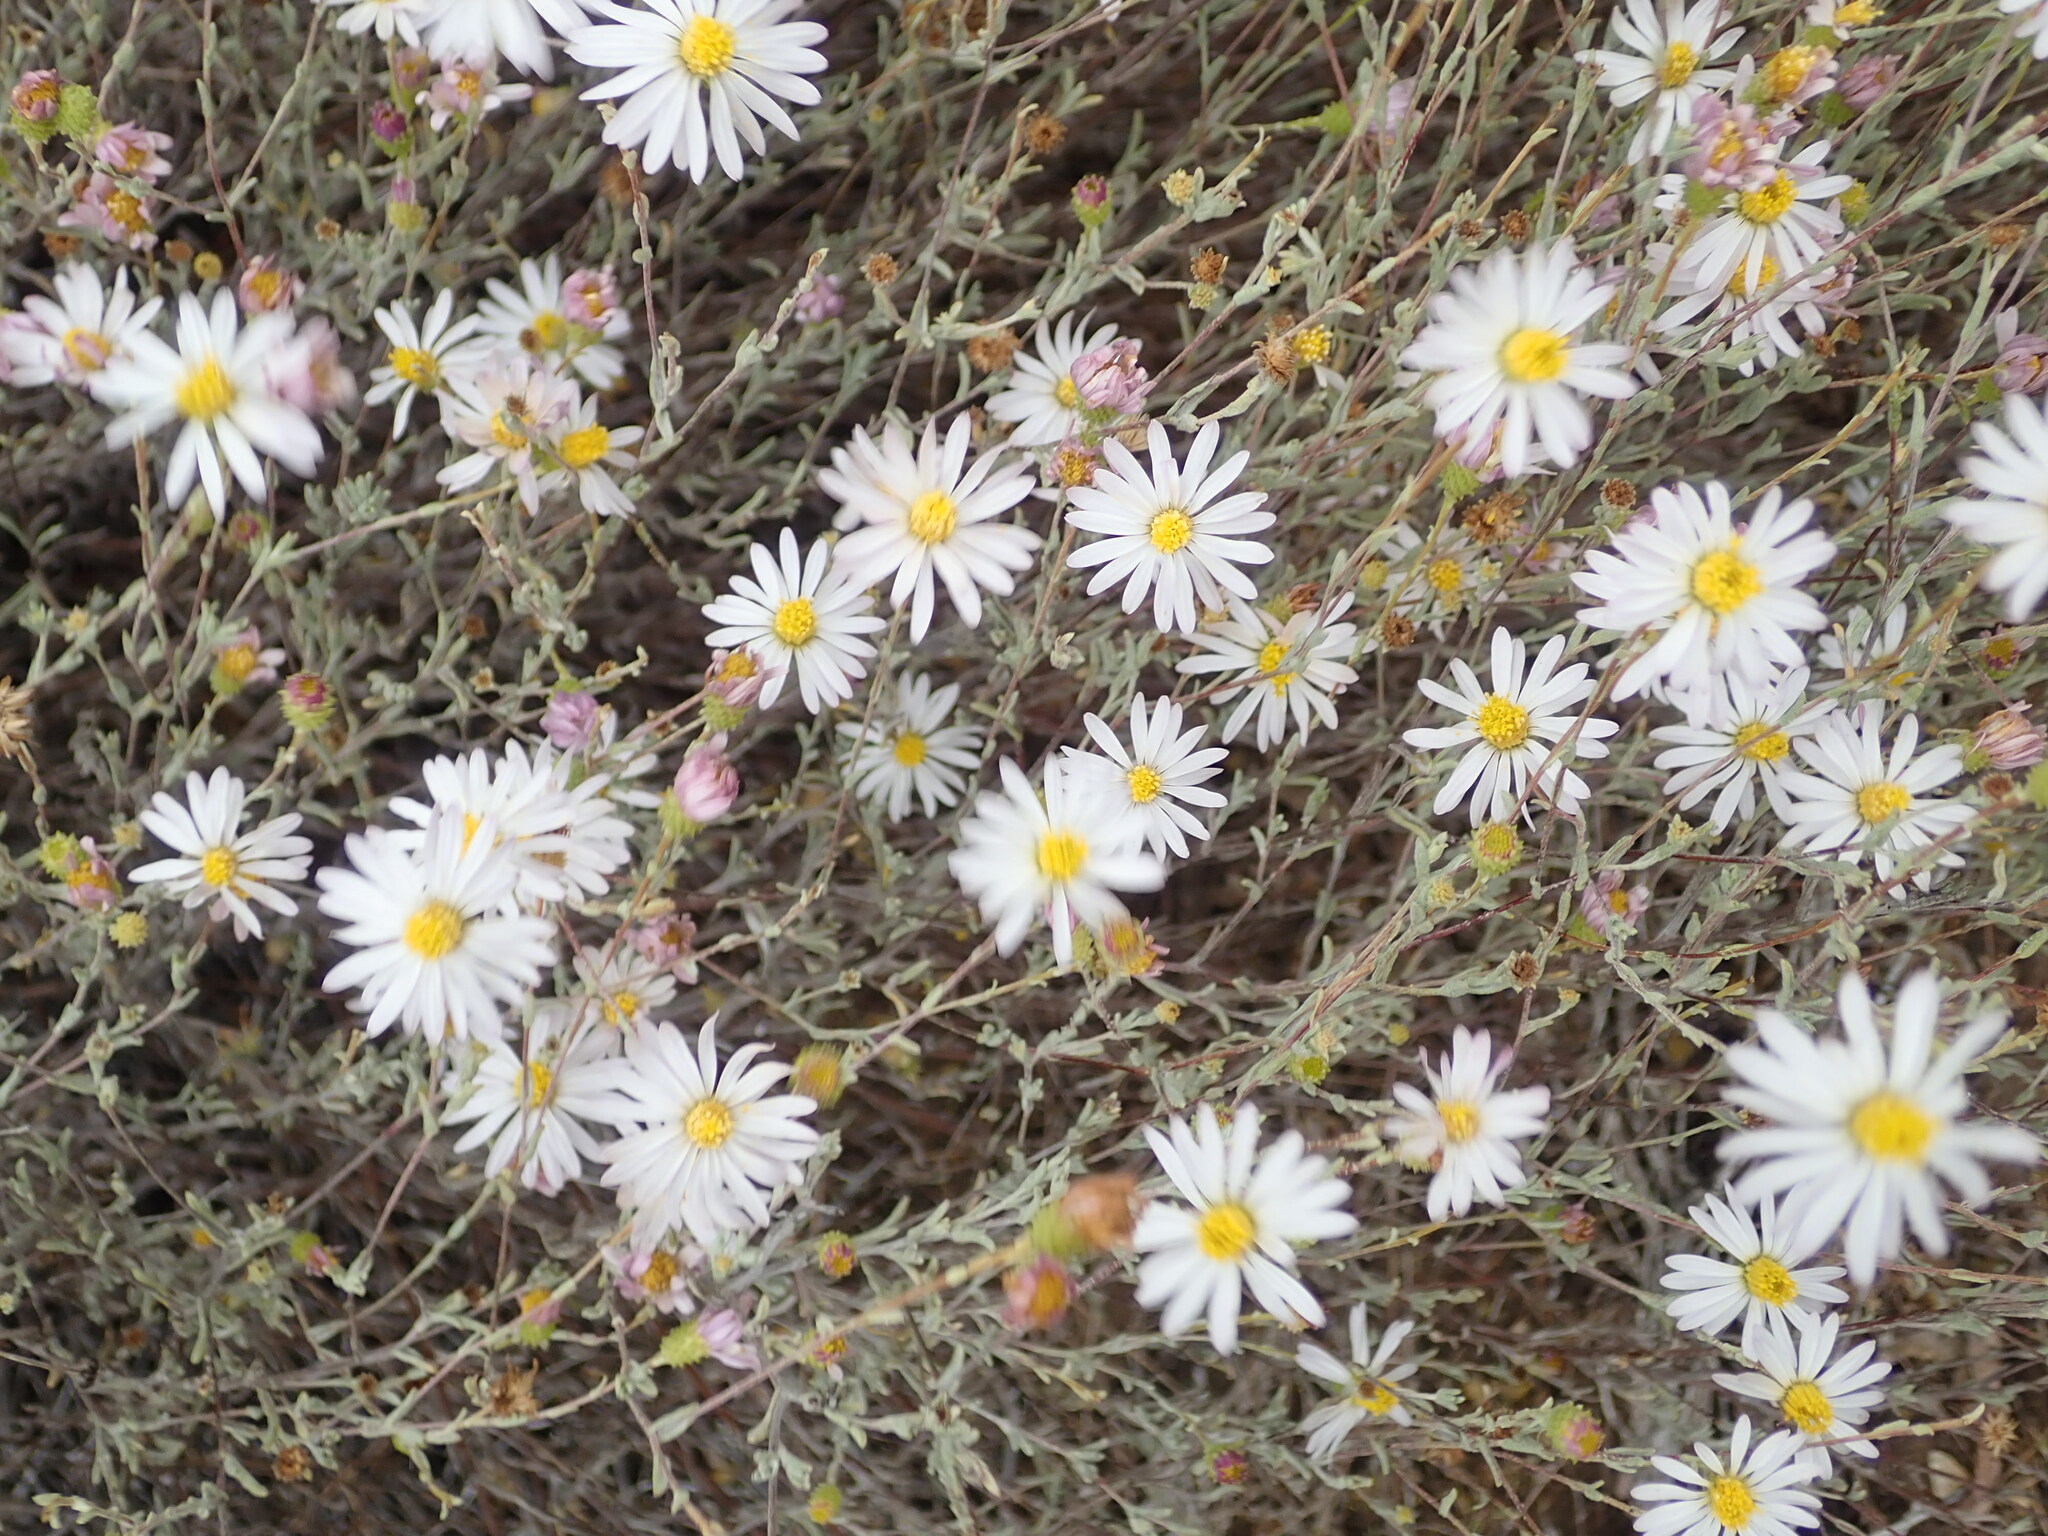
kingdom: Plantae
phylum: Tracheophyta
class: Magnoliopsida
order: Asterales
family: Asteraceae
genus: Corethrogyne
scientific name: Corethrogyne filaginifolia
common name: Sand-aster
